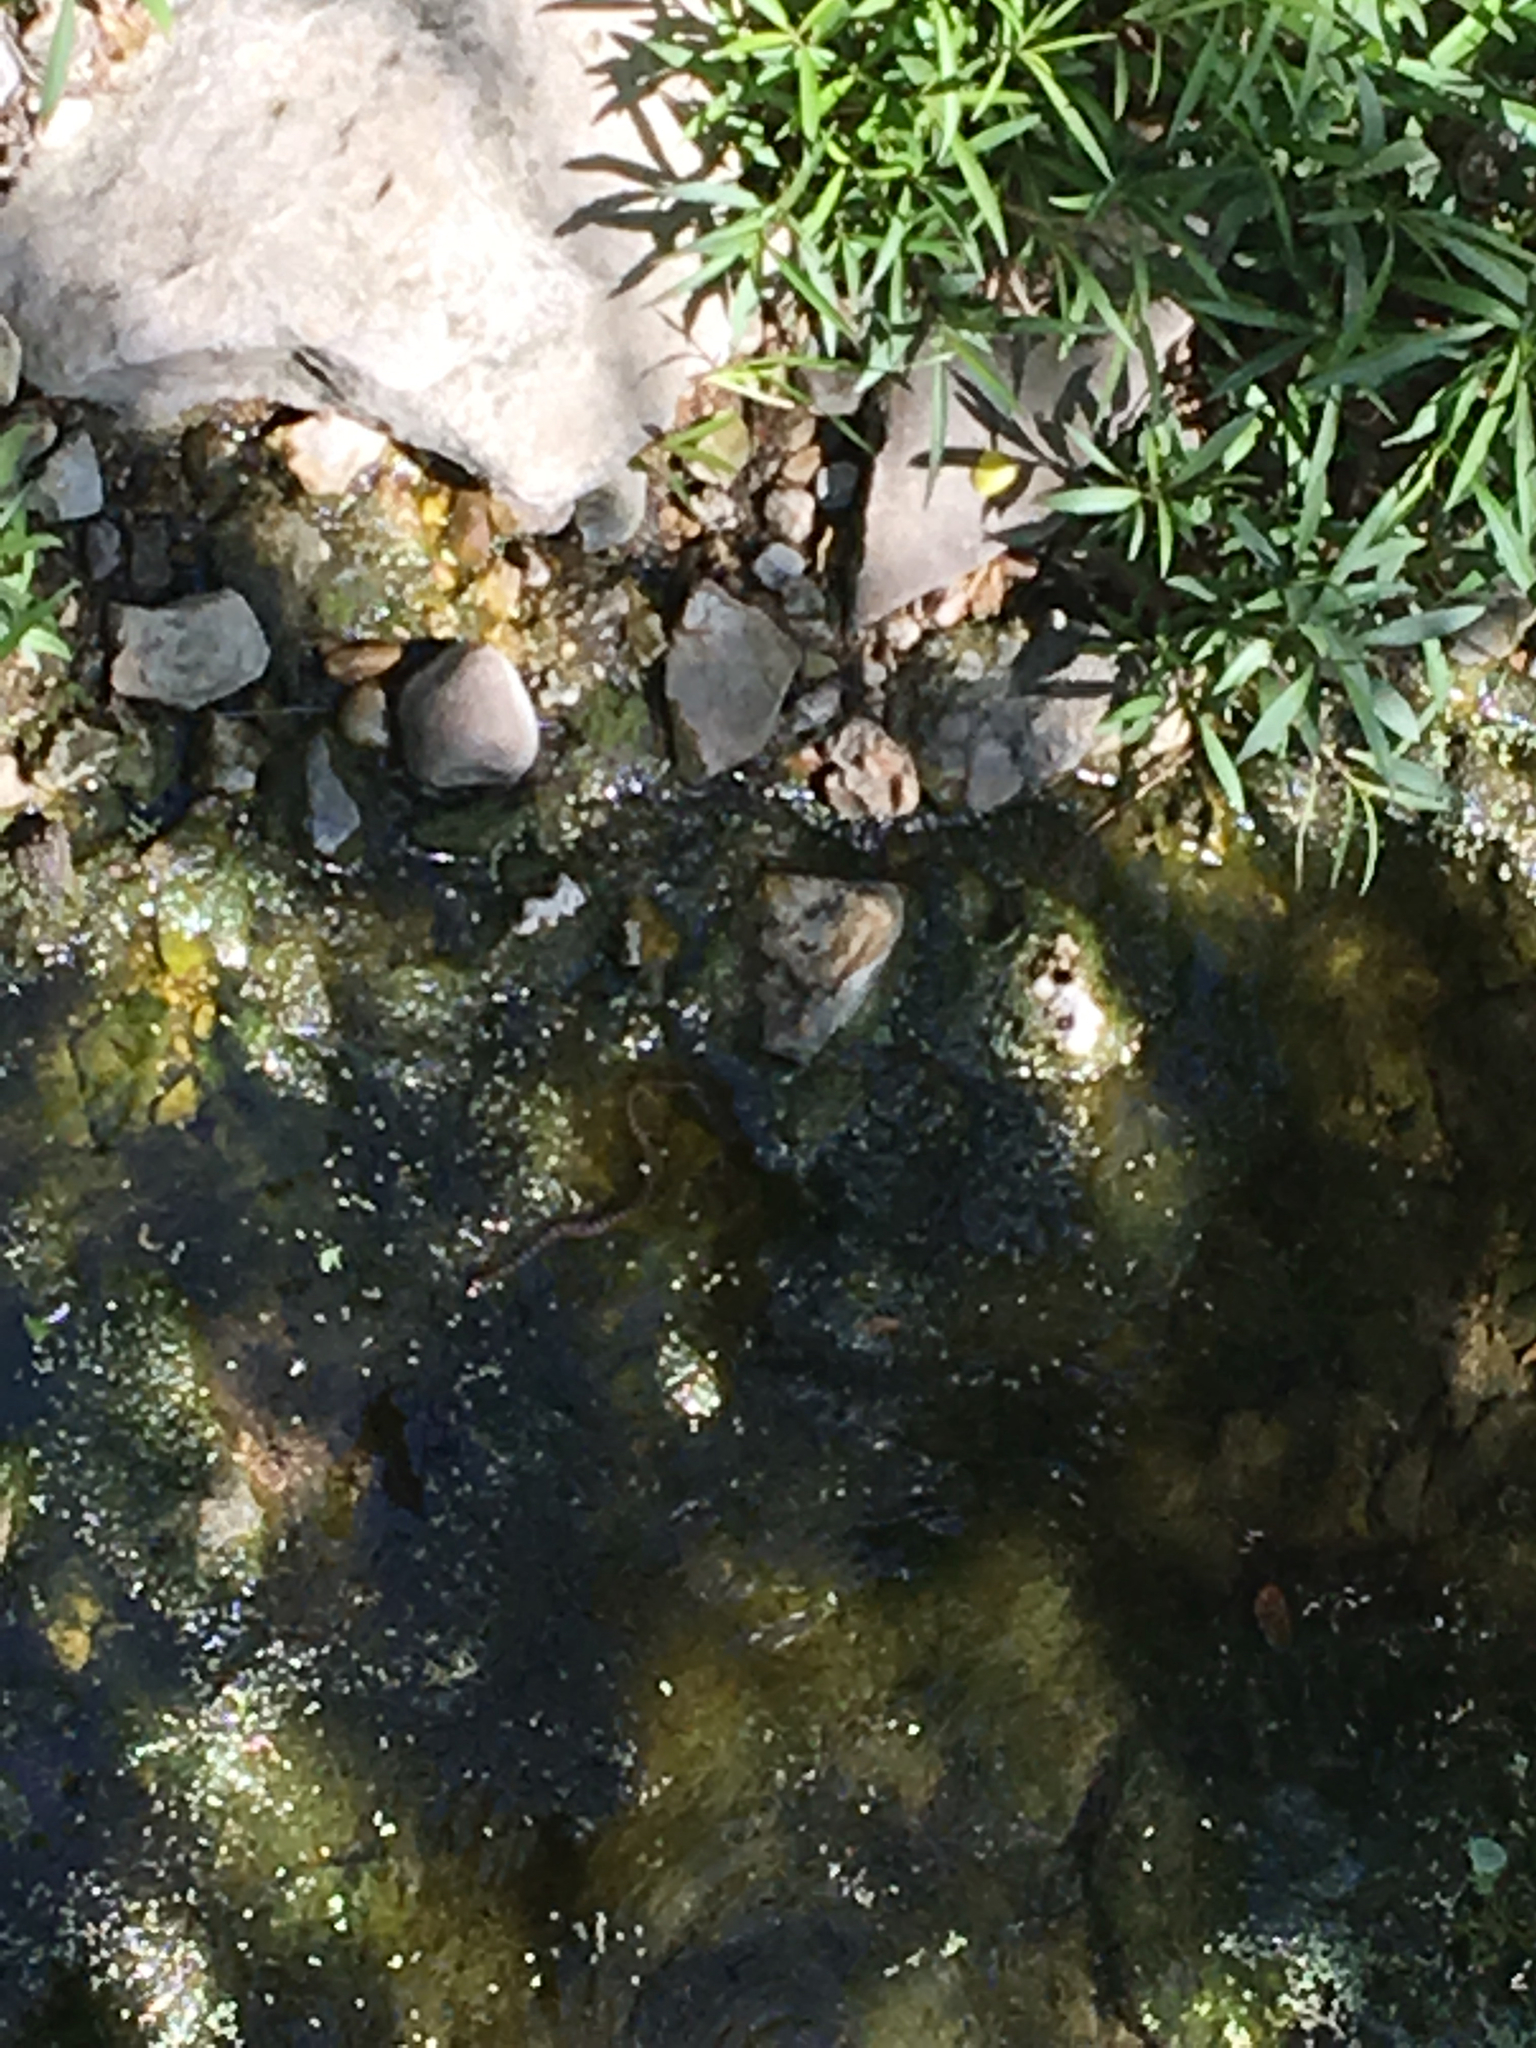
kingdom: Animalia
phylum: Chordata
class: Squamata
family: Colubridae
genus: Nerodia
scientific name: Nerodia erythrogaster
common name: Plainbelly water snake
